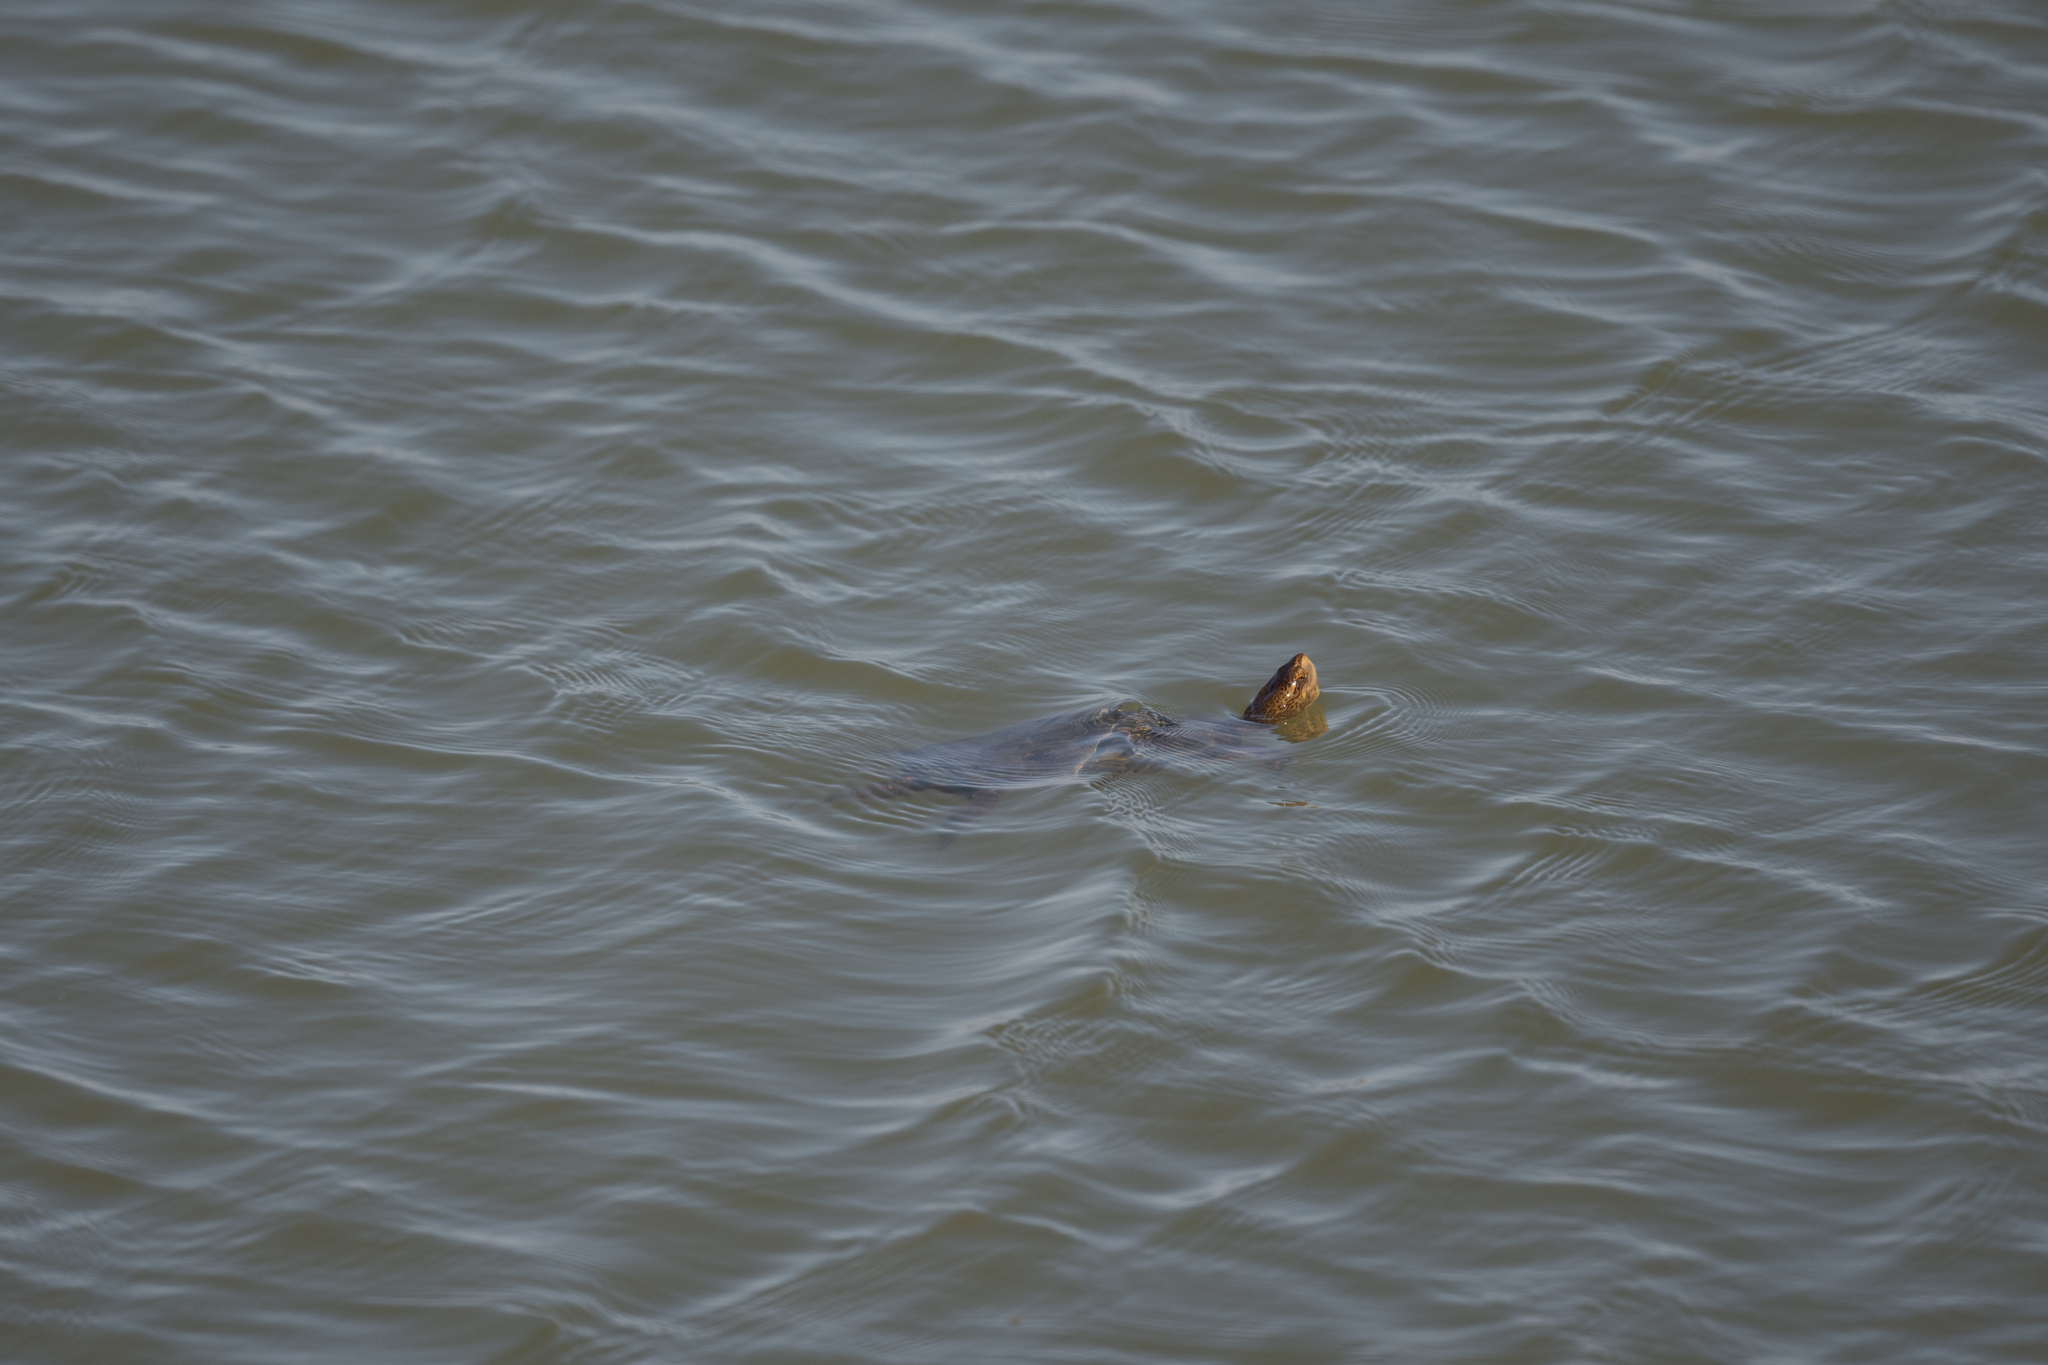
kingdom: Animalia
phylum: Chordata
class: Testudines
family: Emydidae
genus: Actinemys
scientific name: Actinemys marmorata
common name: Western pond turtle
